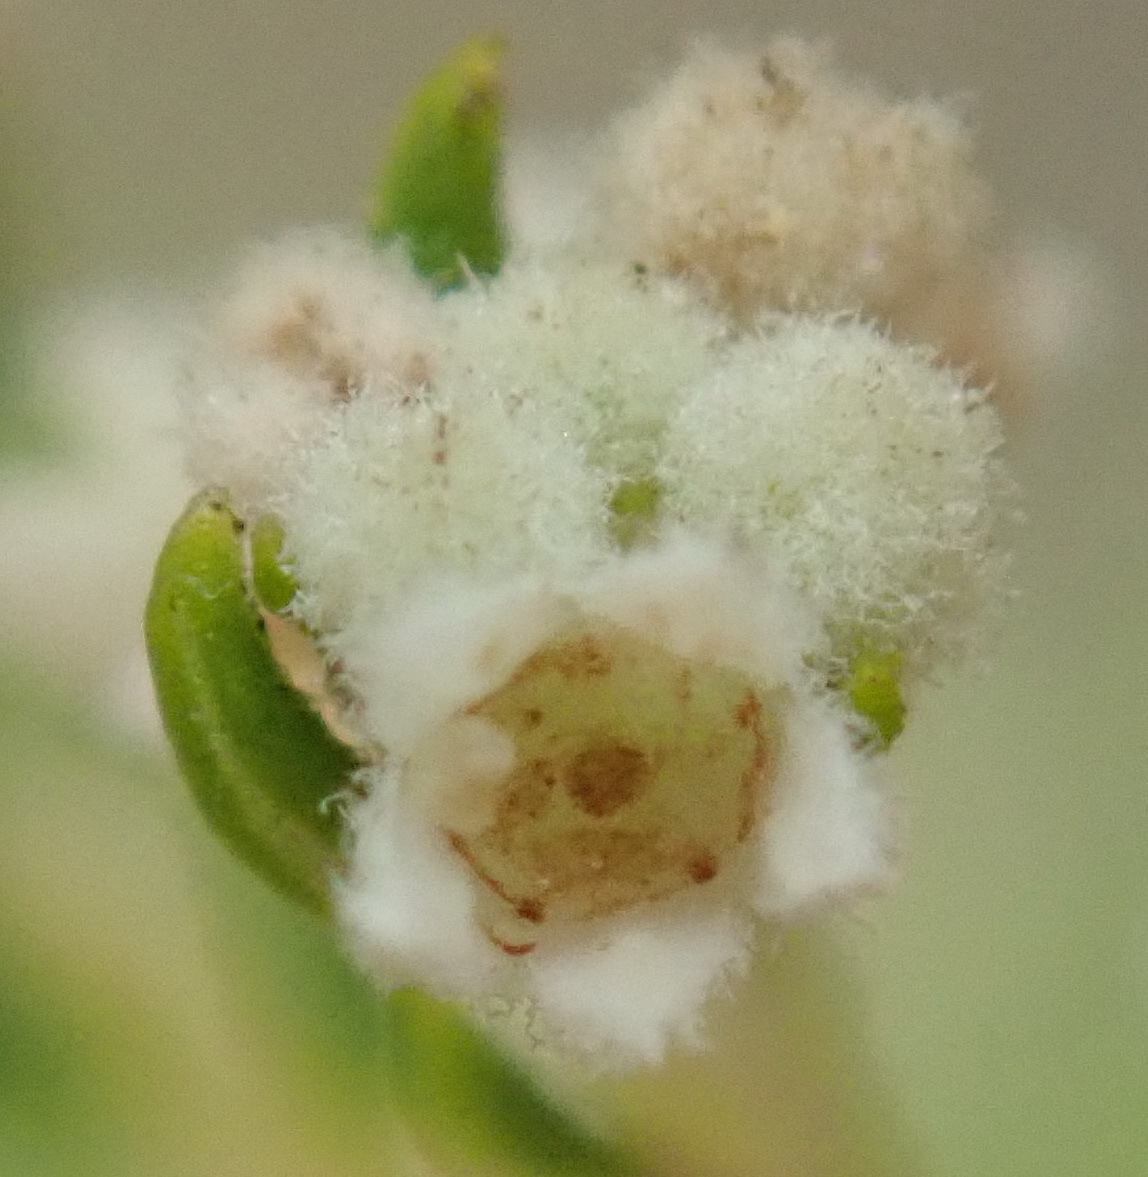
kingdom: Plantae
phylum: Tracheophyta
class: Magnoliopsida
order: Rosales
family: Rhamnaceae
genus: Phylica
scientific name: Phylica rubra
